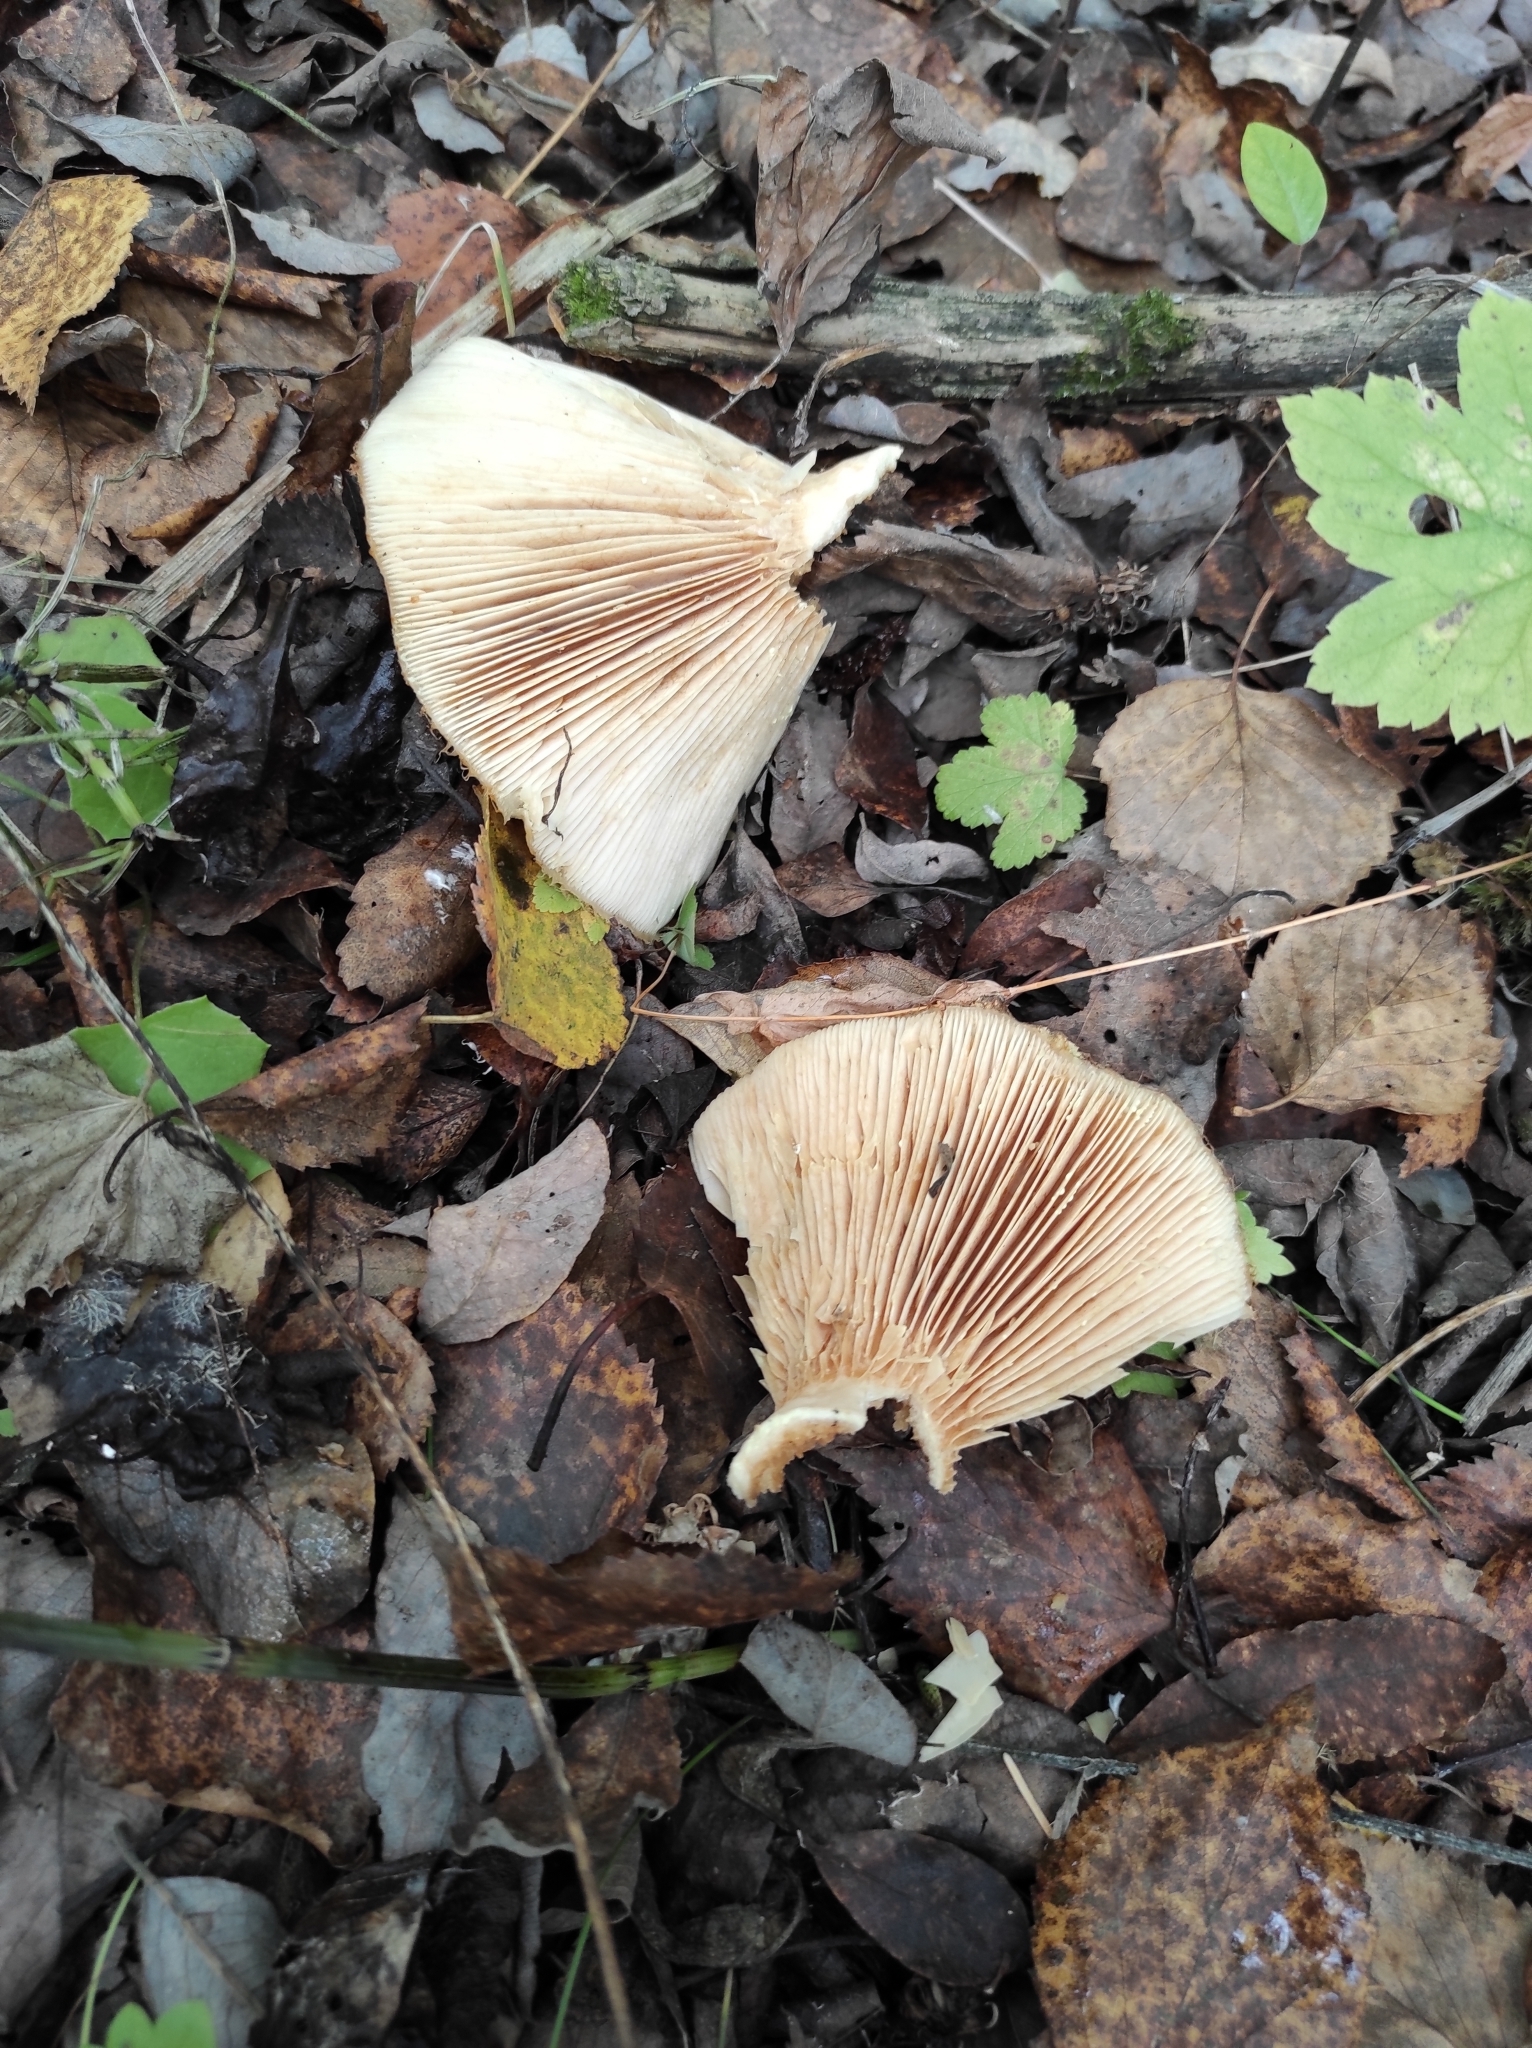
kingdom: Fungi
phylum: Basidiomycota
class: Agaricomycetes
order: Russulales
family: Russulaceae
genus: Lactarius
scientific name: Lactarius resimus
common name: Rollrim milkcap
